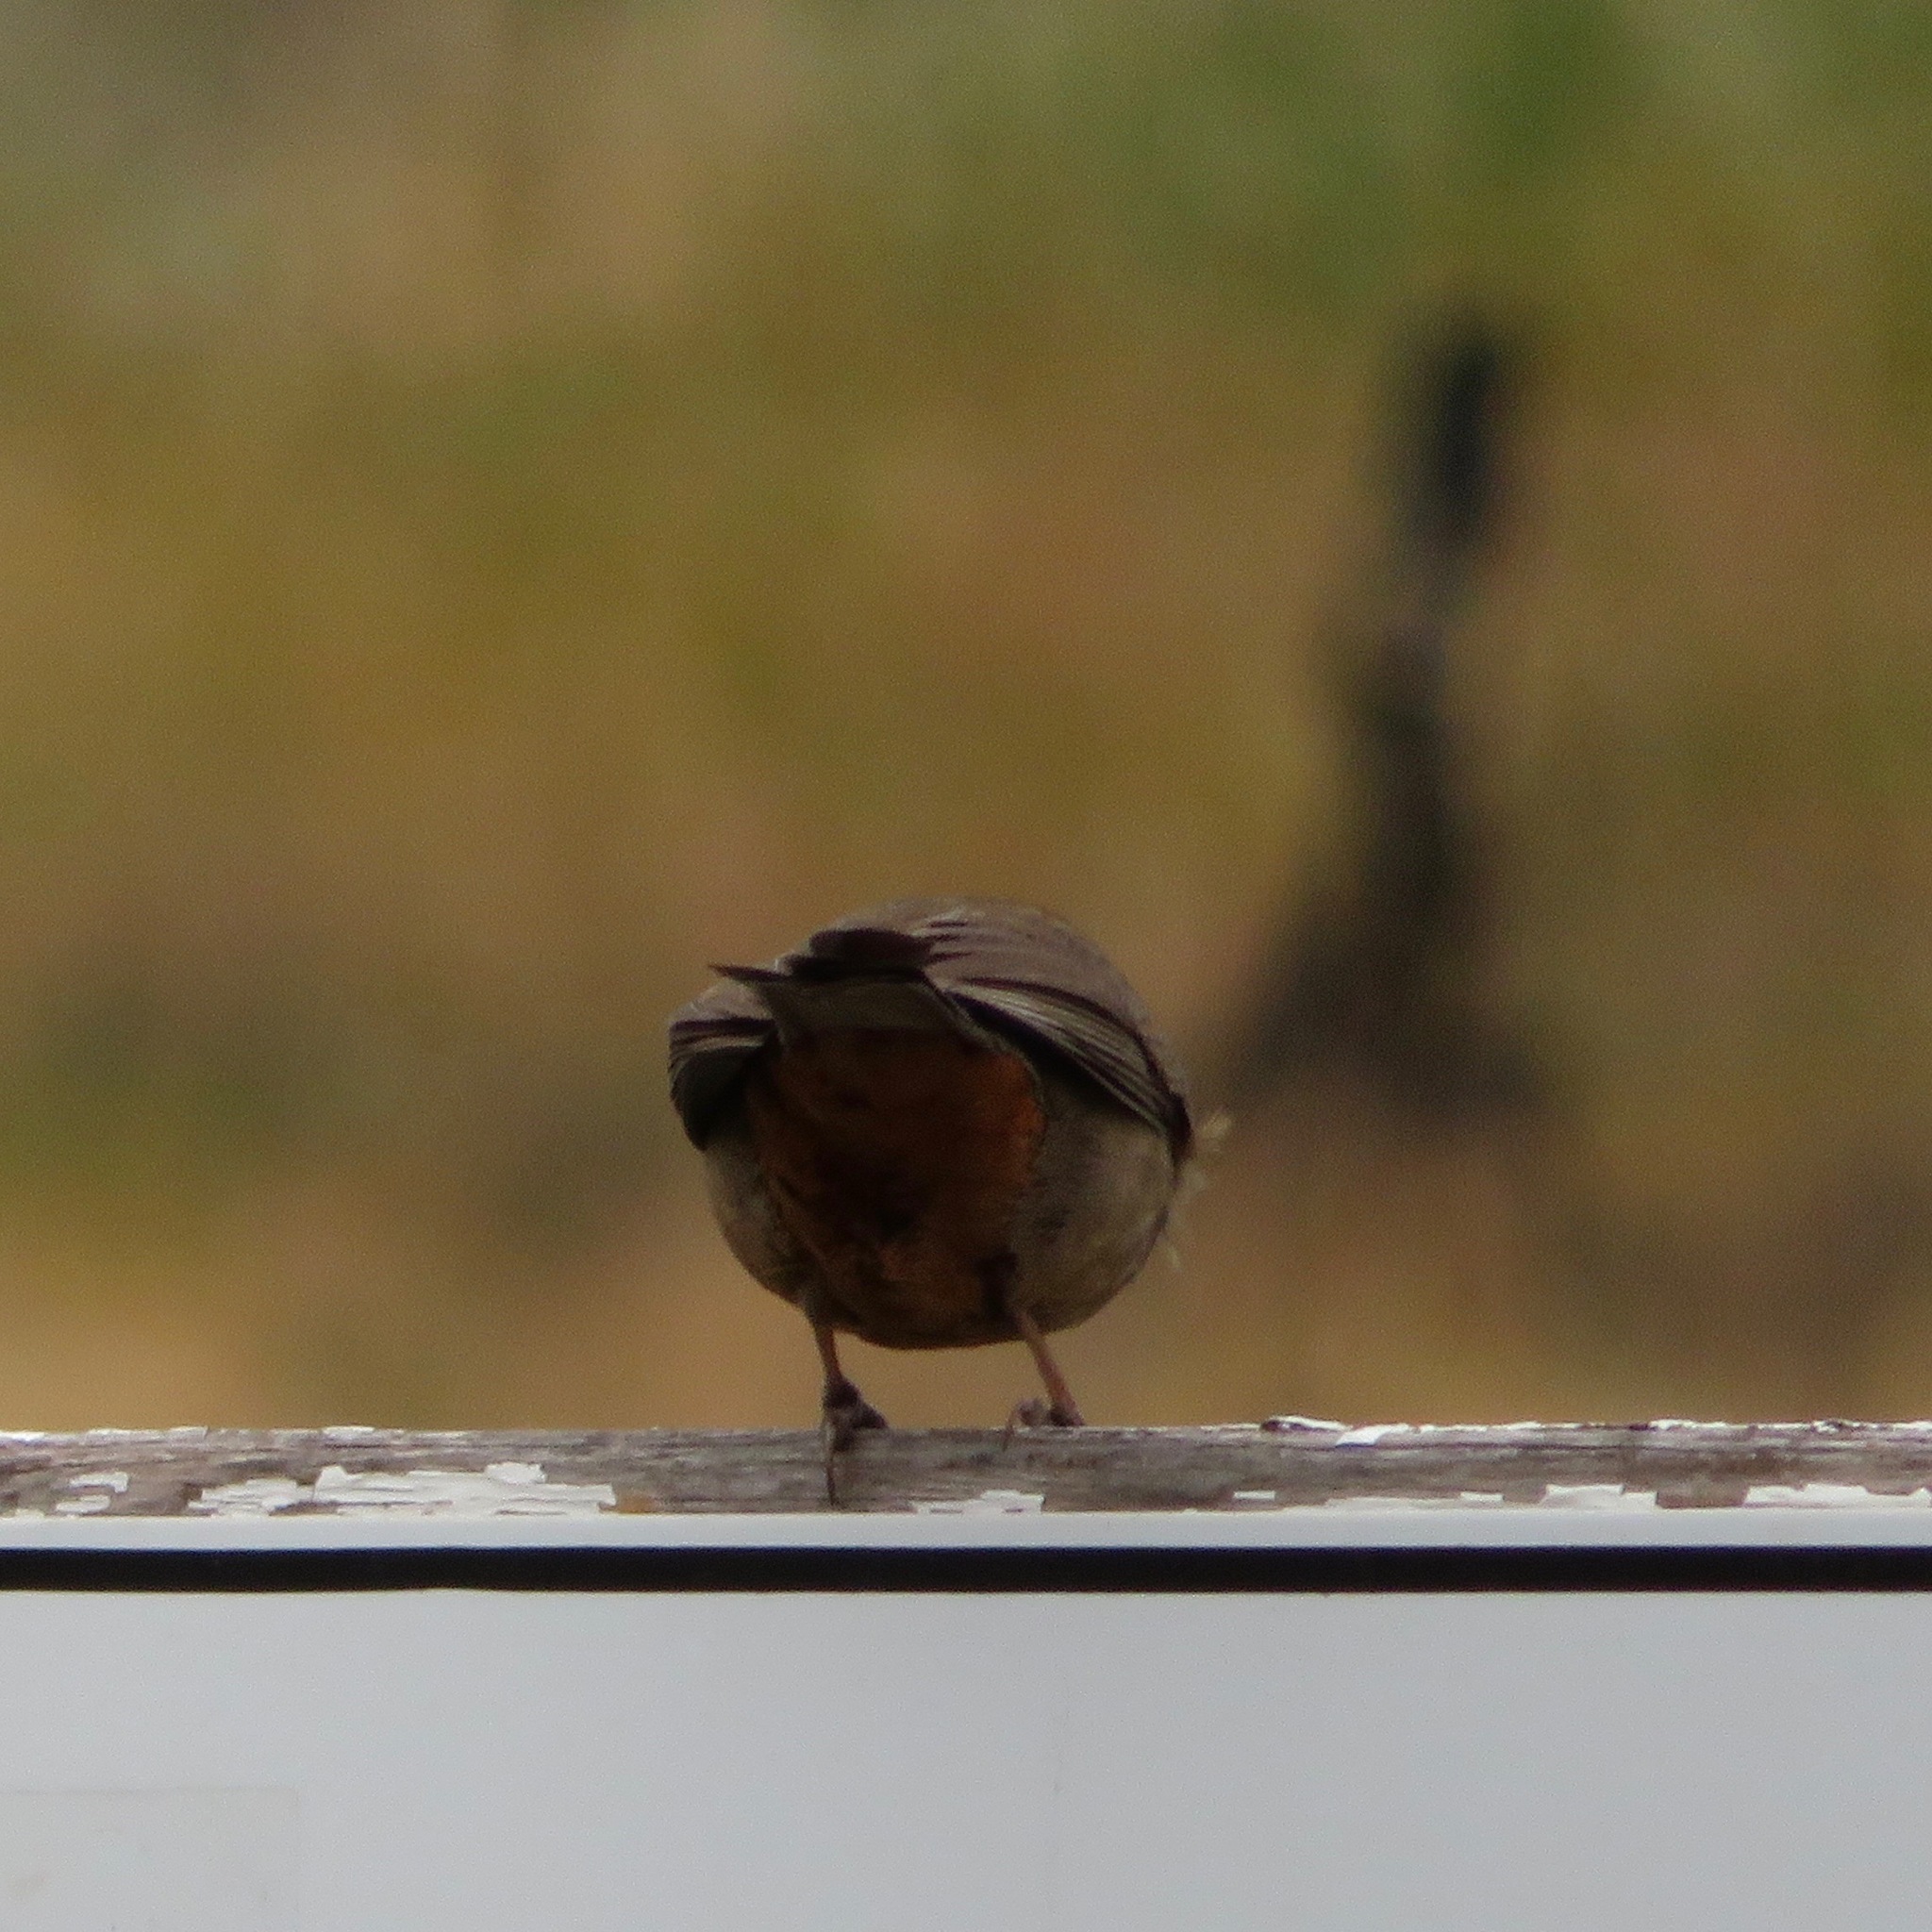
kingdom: Animalia
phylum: Chordata
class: Aves
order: Passeriformes
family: Tyrannidae
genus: Sayornis
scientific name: Sayornis nigricans
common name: Black phoebe
